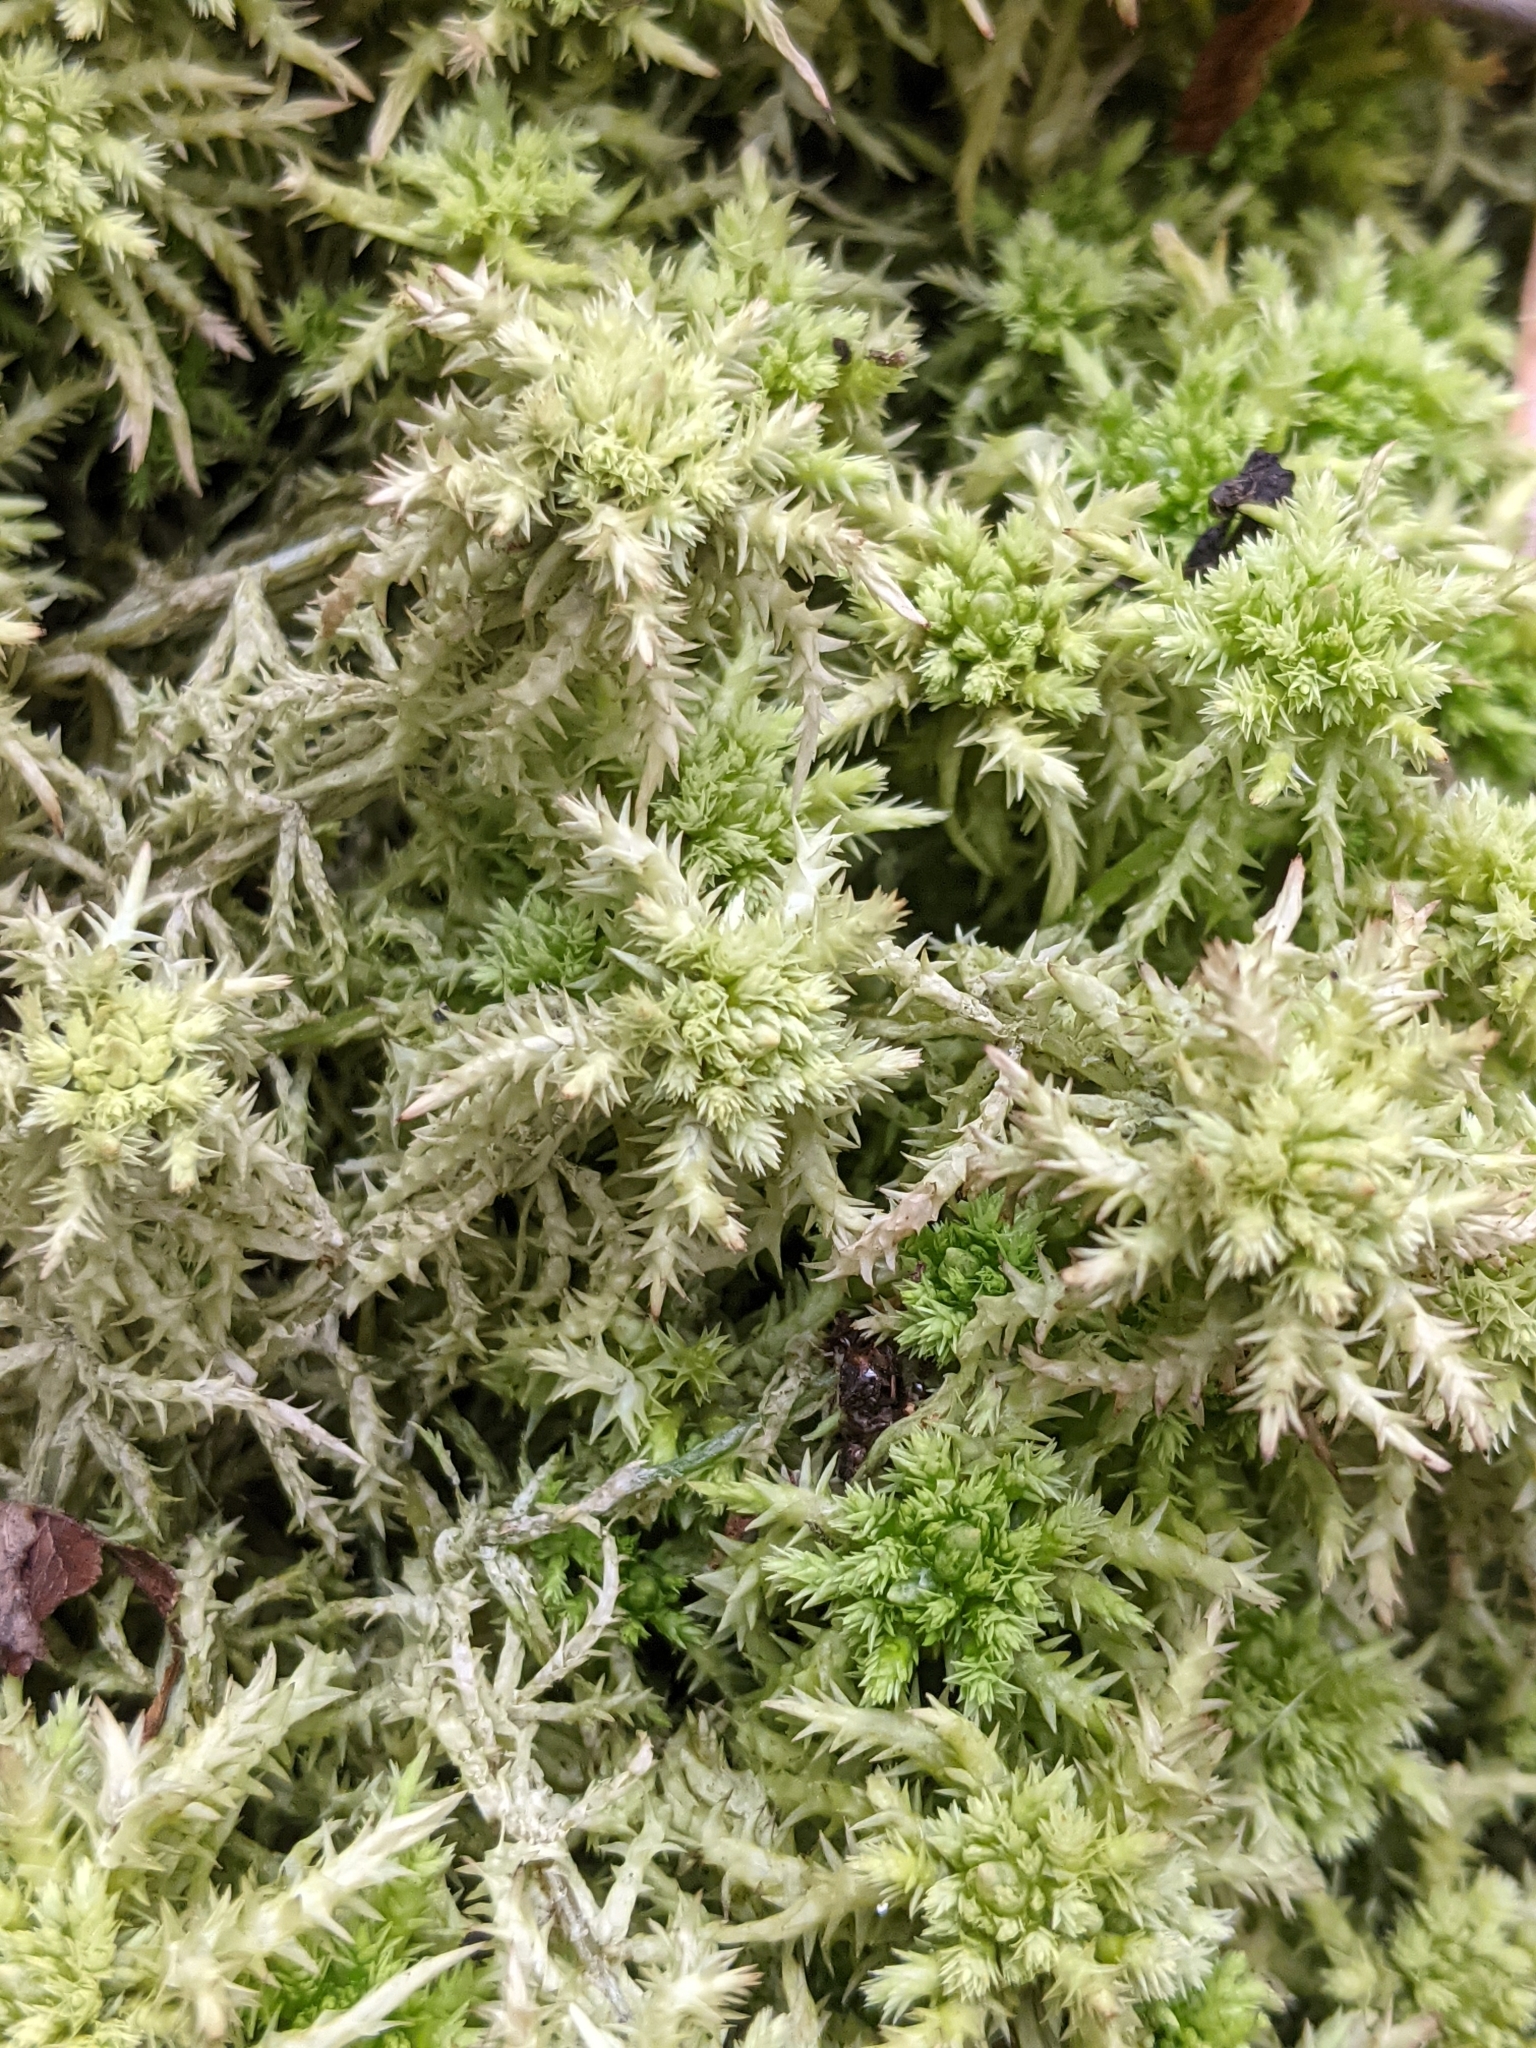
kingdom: Plantae
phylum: Bryophyta
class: Sphagnopsida
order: Sphagnales
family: Sphagnaceae
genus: Sphagnum
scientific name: Sphagnum squarrosum
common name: Shaggy peat moss
